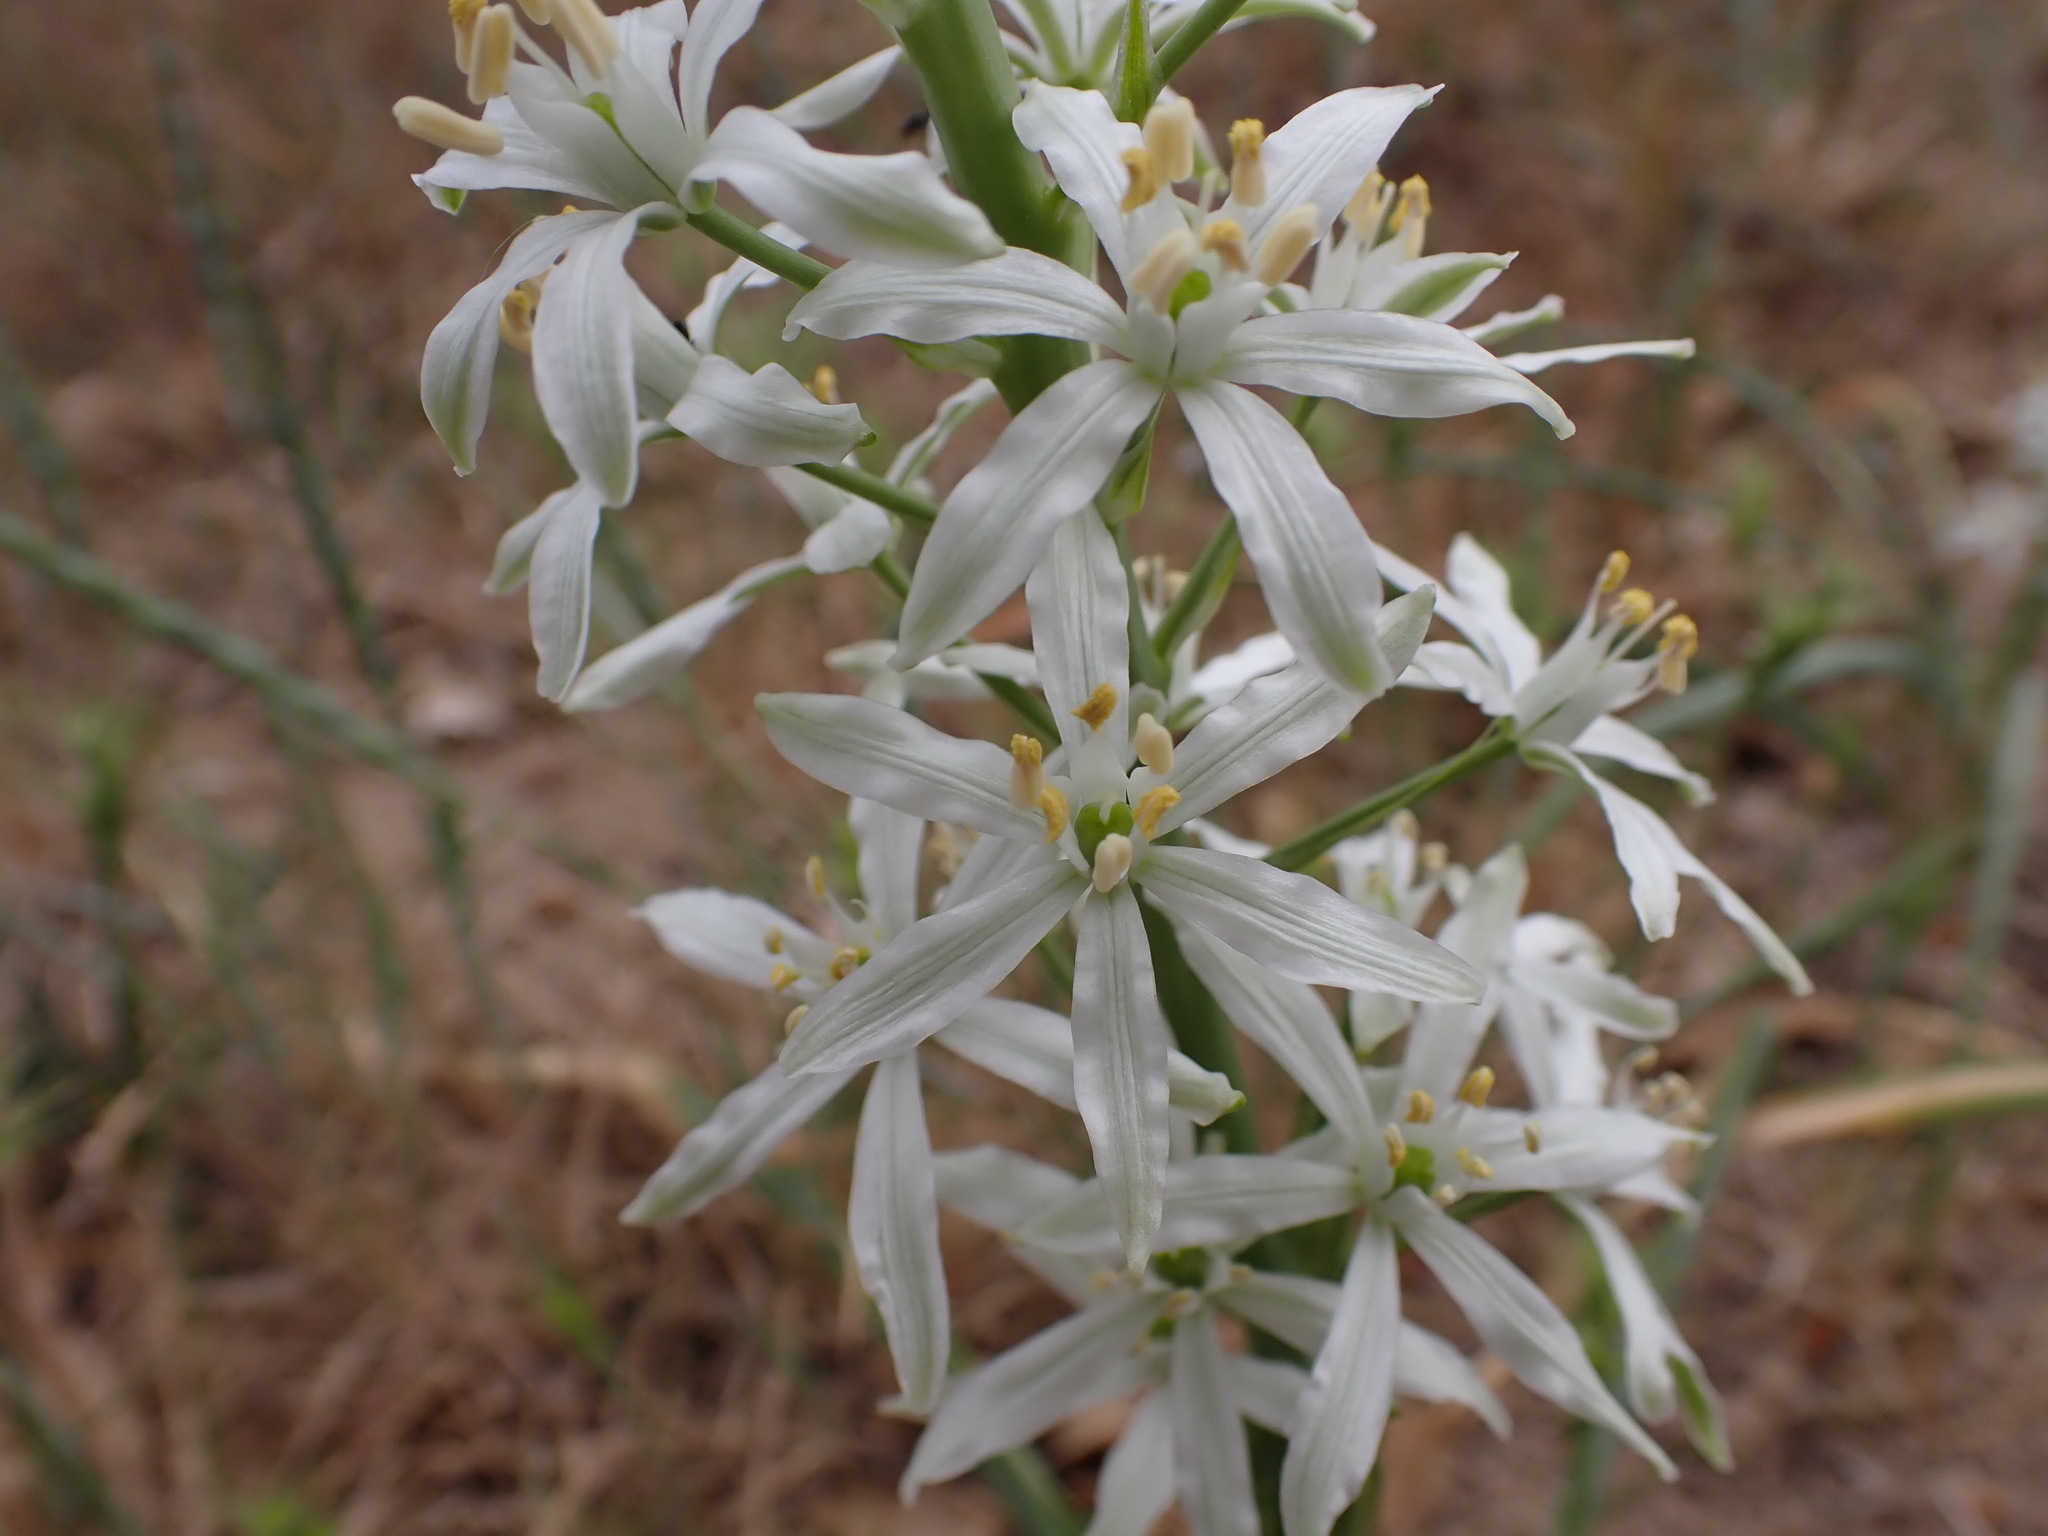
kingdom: Plantae
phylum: Tracheophyta
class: Liliopsida
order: Asparagales
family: Asparagaceae
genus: Ornithogalum
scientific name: Ornithogalum narbonense
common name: Bath-asparagus
